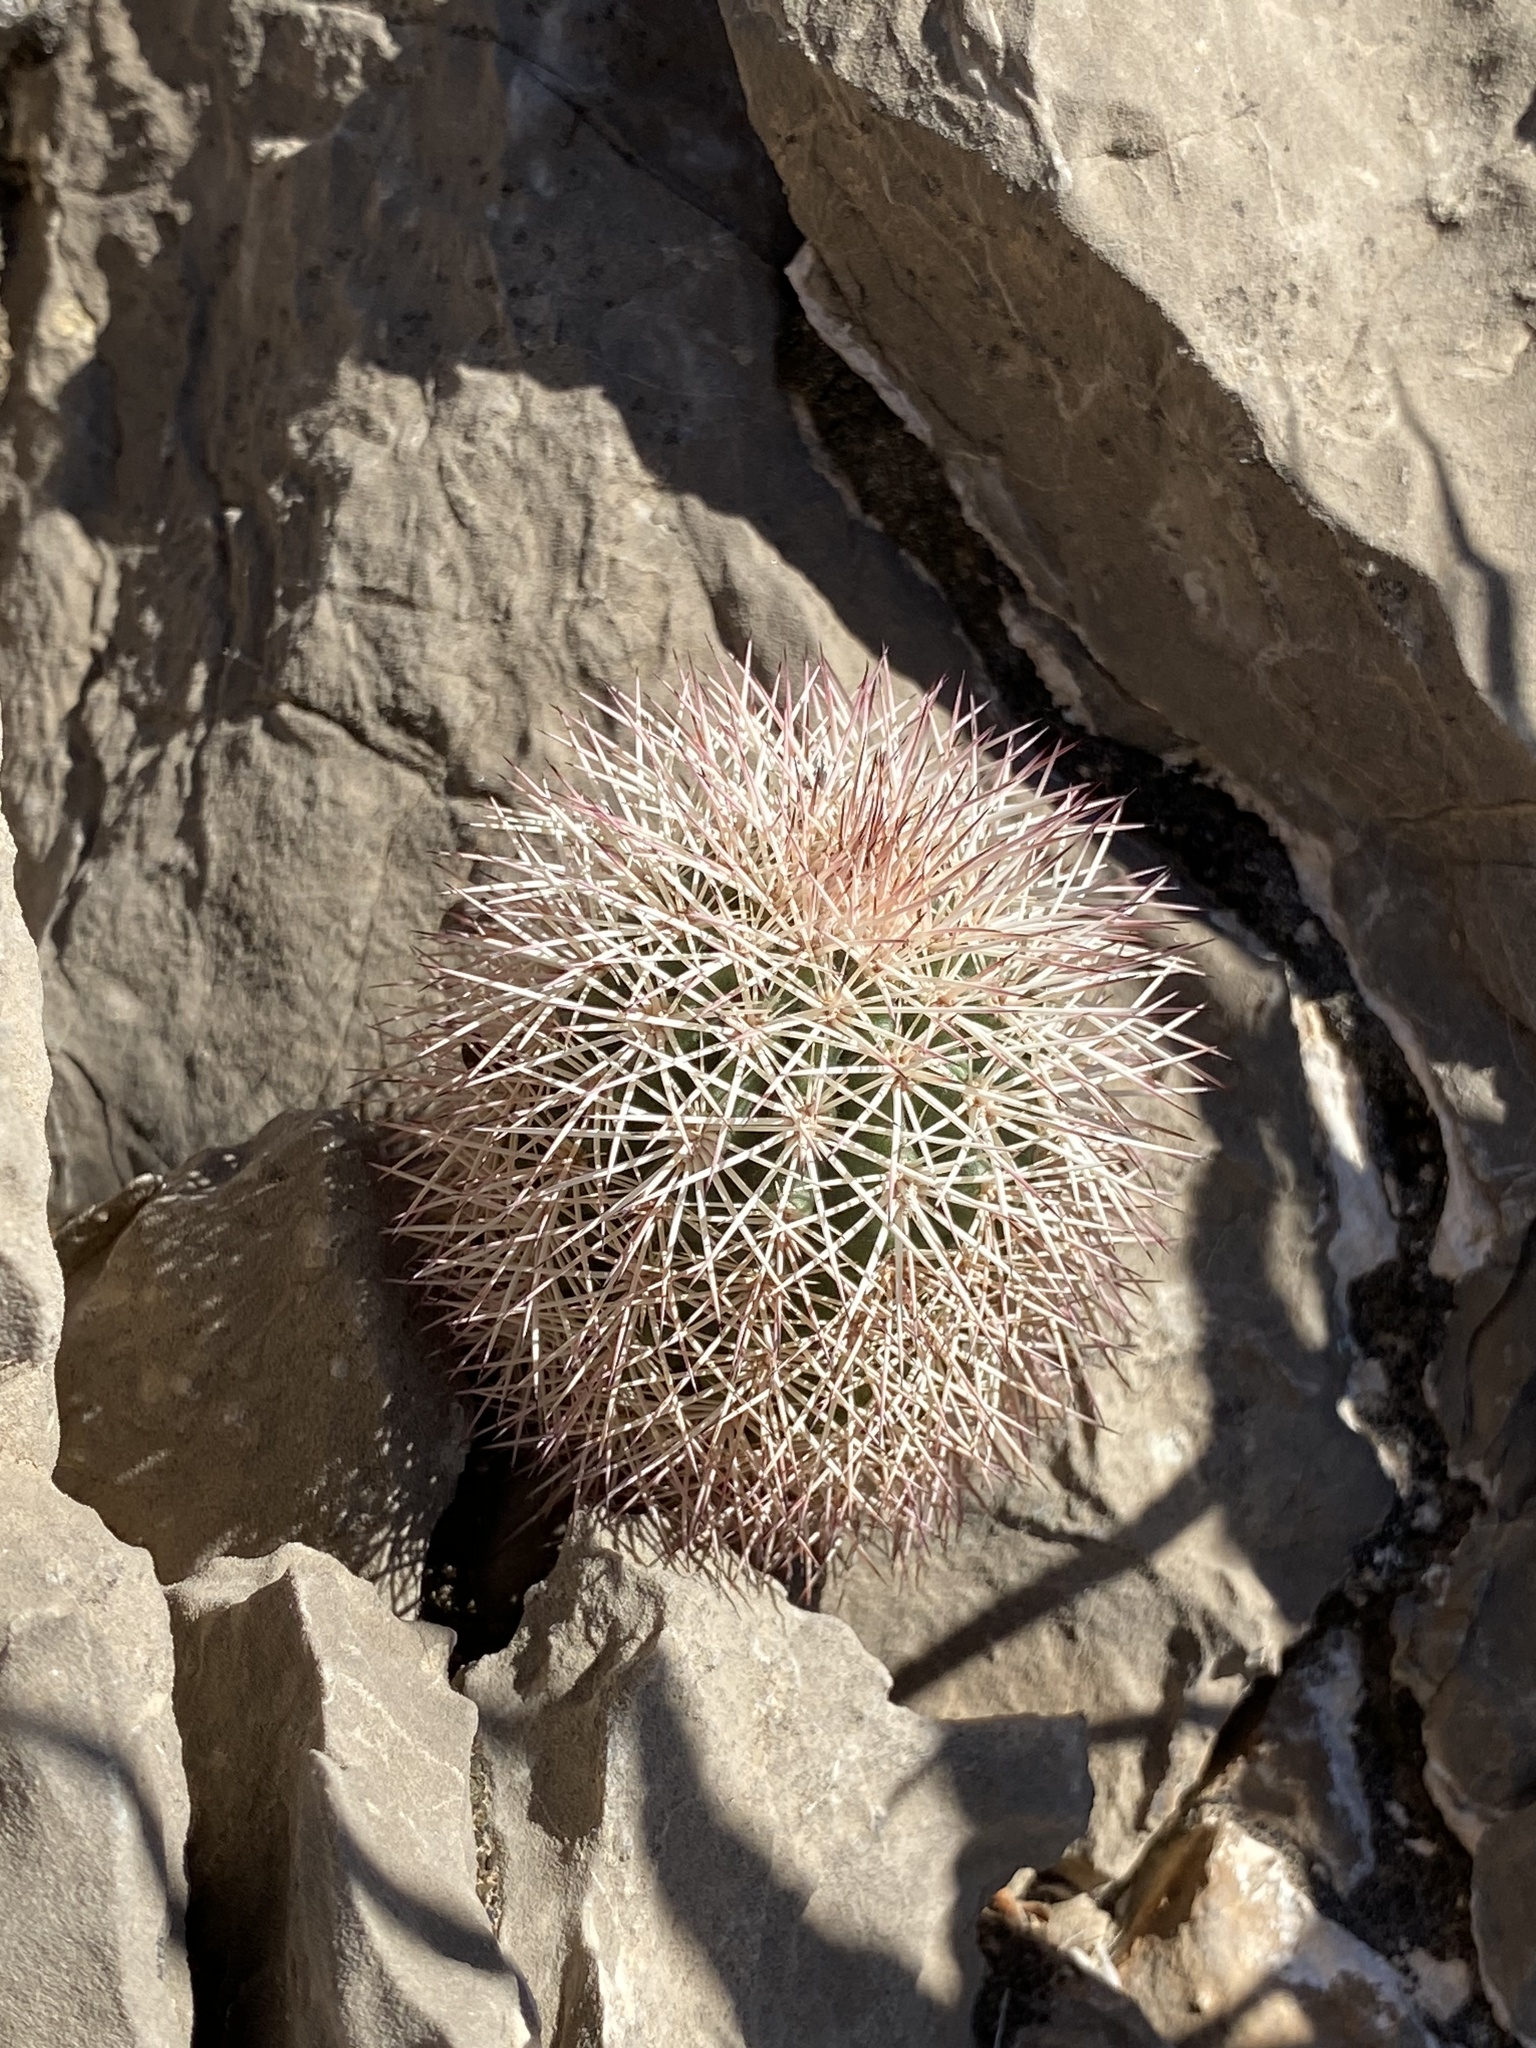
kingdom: Plantae
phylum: Tracheophyta
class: Magnoliopsida
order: Caryophyllales
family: Cactaceae
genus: Echinocereus
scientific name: Echinocereus dasyacanthus
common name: Spiny hedgehog cactus
